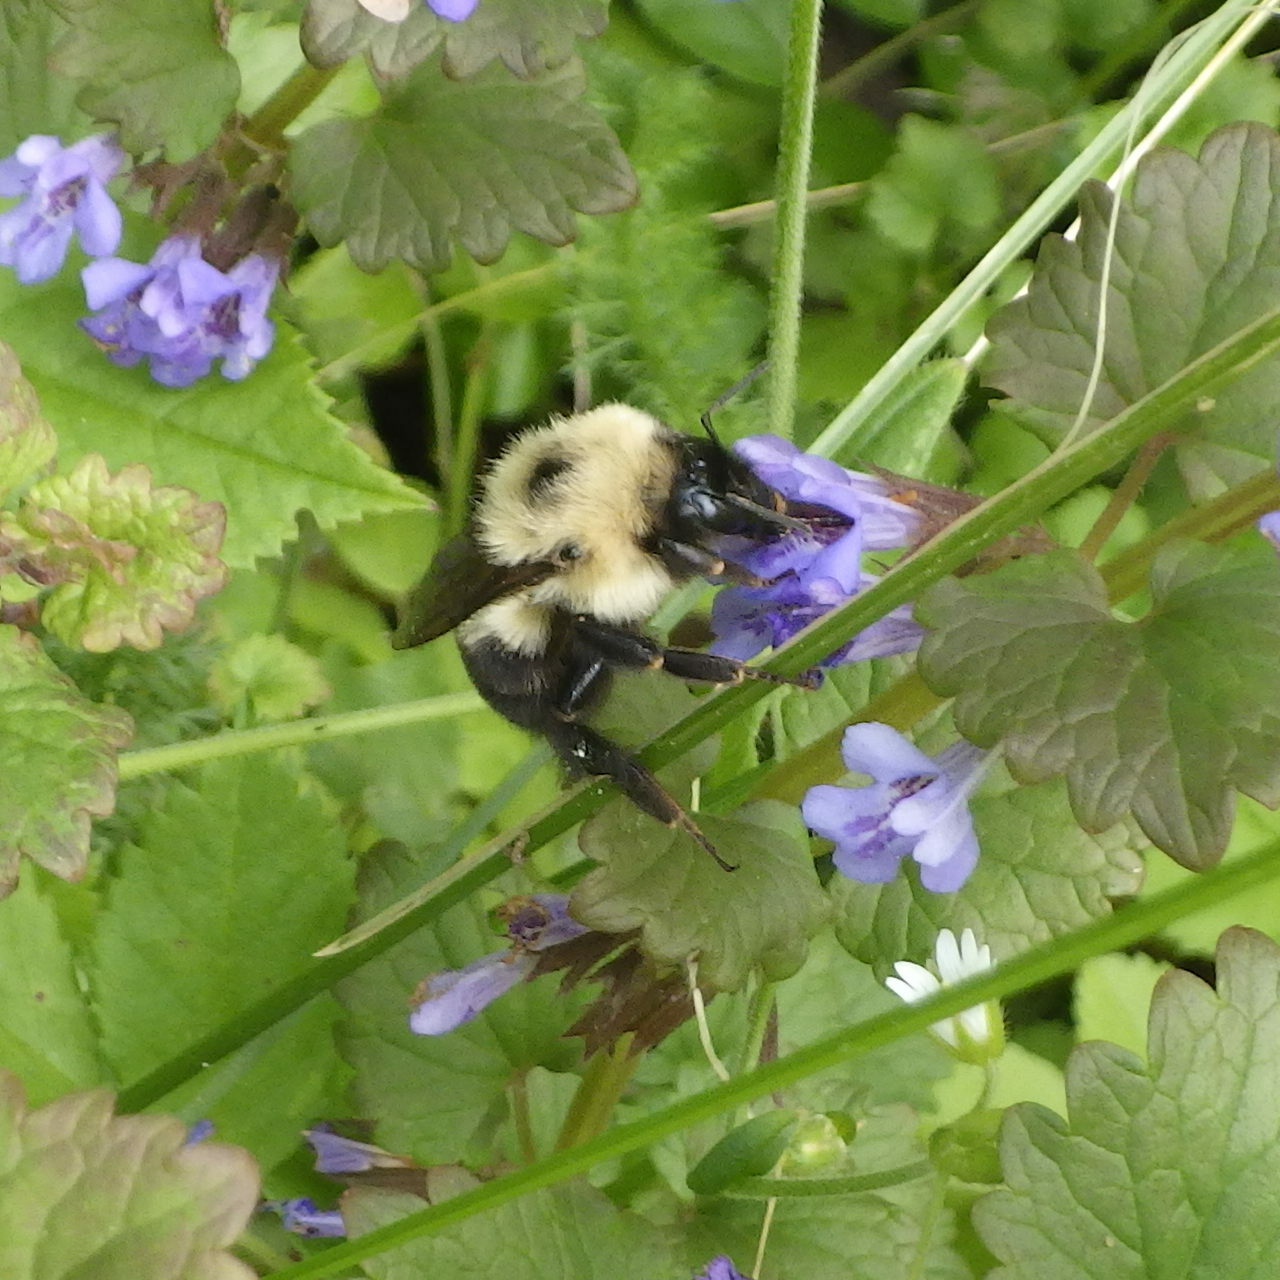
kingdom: Animalia
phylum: Arthropoda
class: Insecta
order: Hymenoptera
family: Apidae
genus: Bombus
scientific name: Bombus bimaculatus
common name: Two-spotted bumble bee
